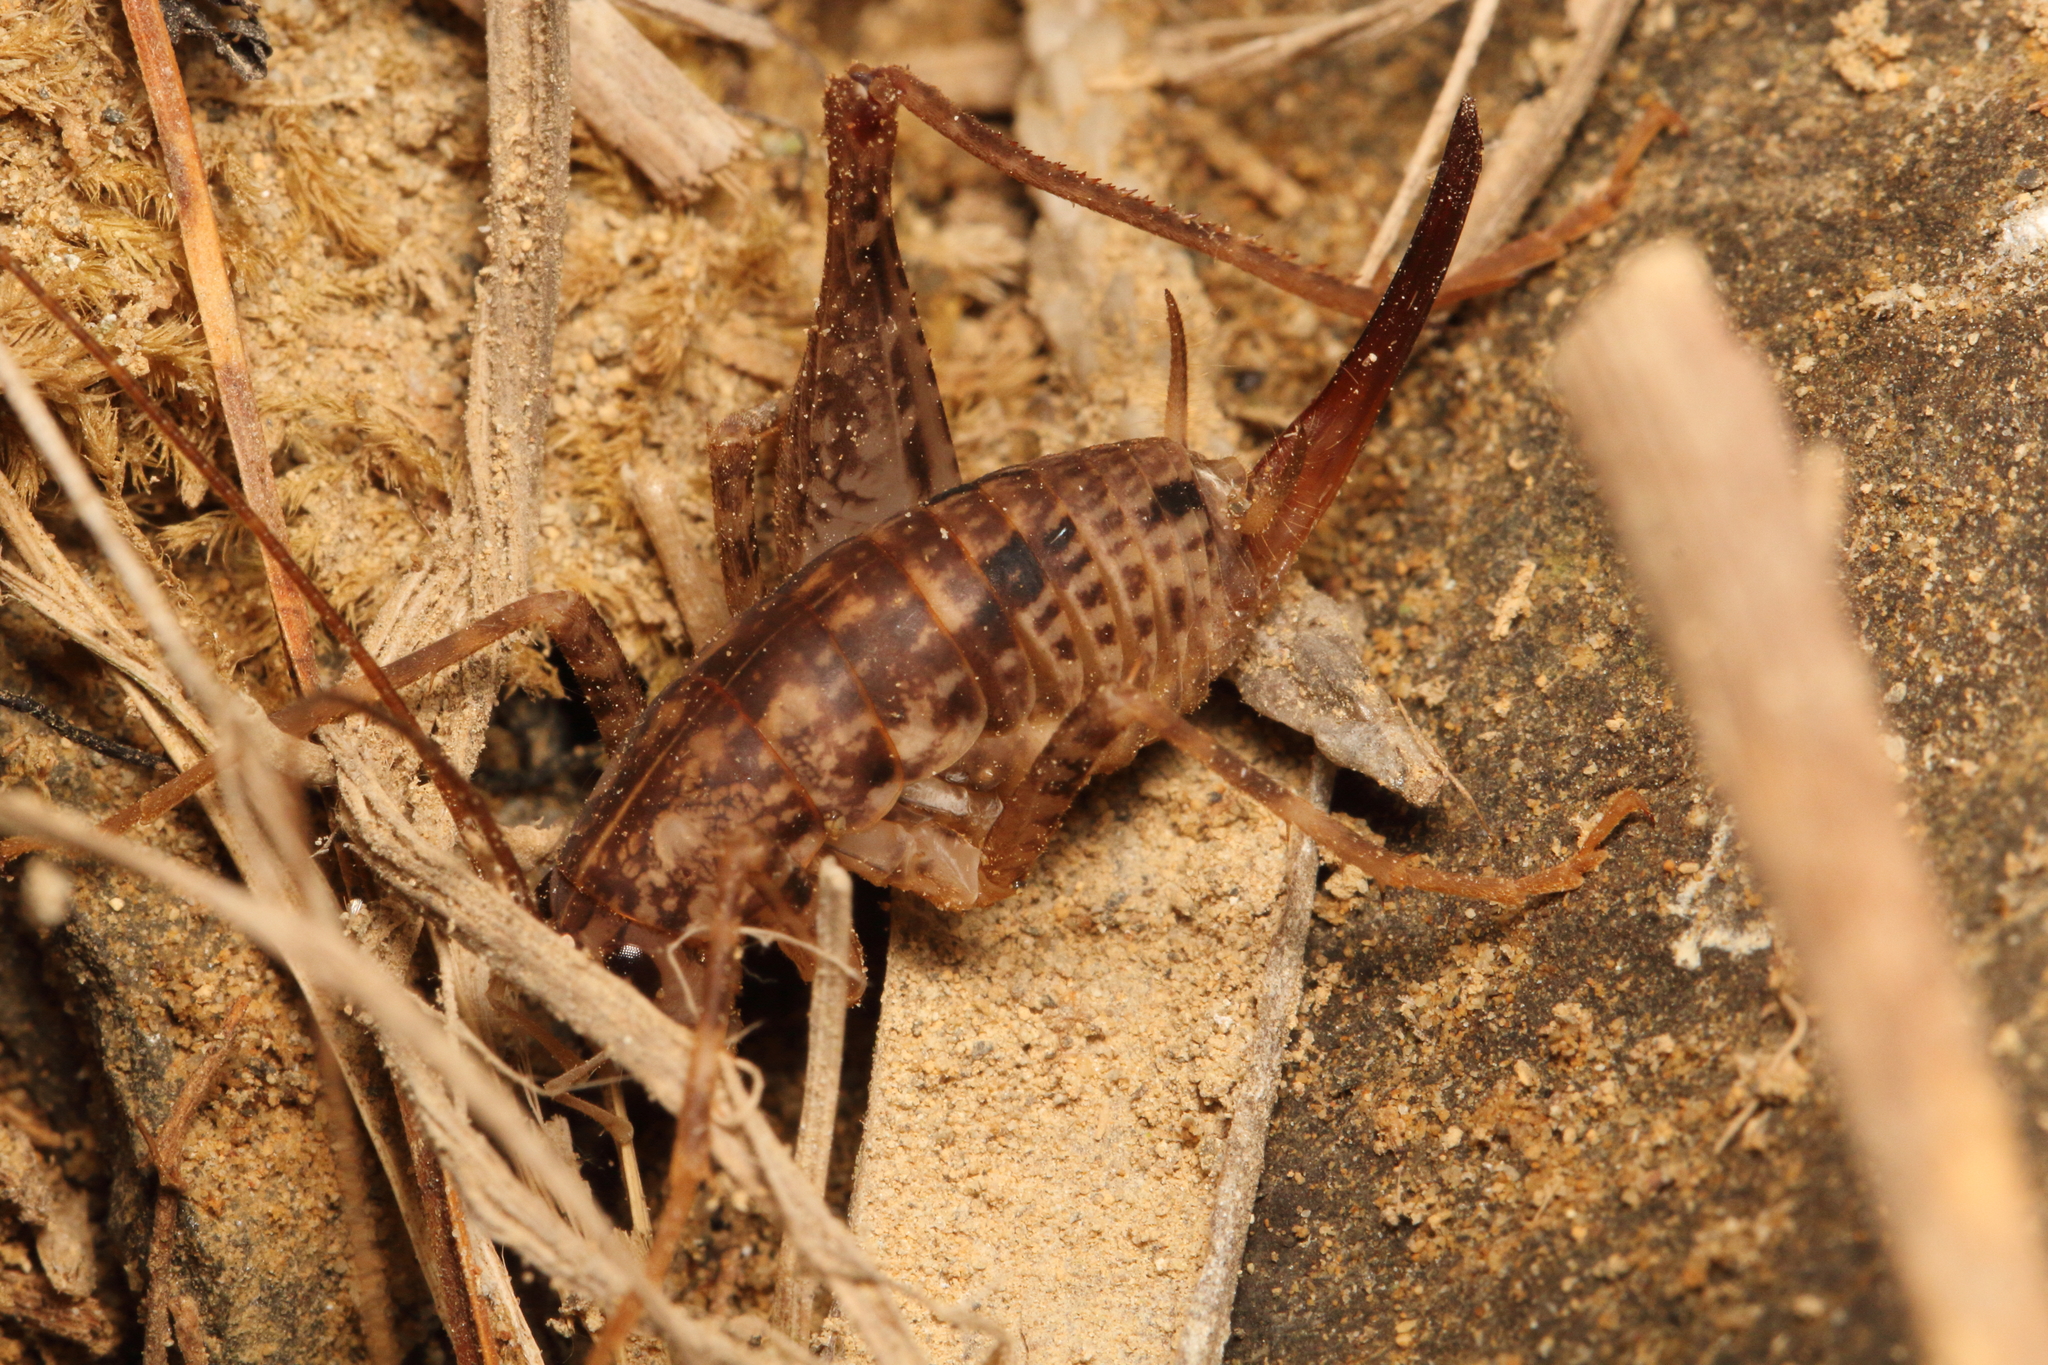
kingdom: Animalia
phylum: Arthropoda
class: Insecta
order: Orthoptera
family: Rhaphidophoridae
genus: Pleioplectron
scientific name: Pleioplectron simplex
